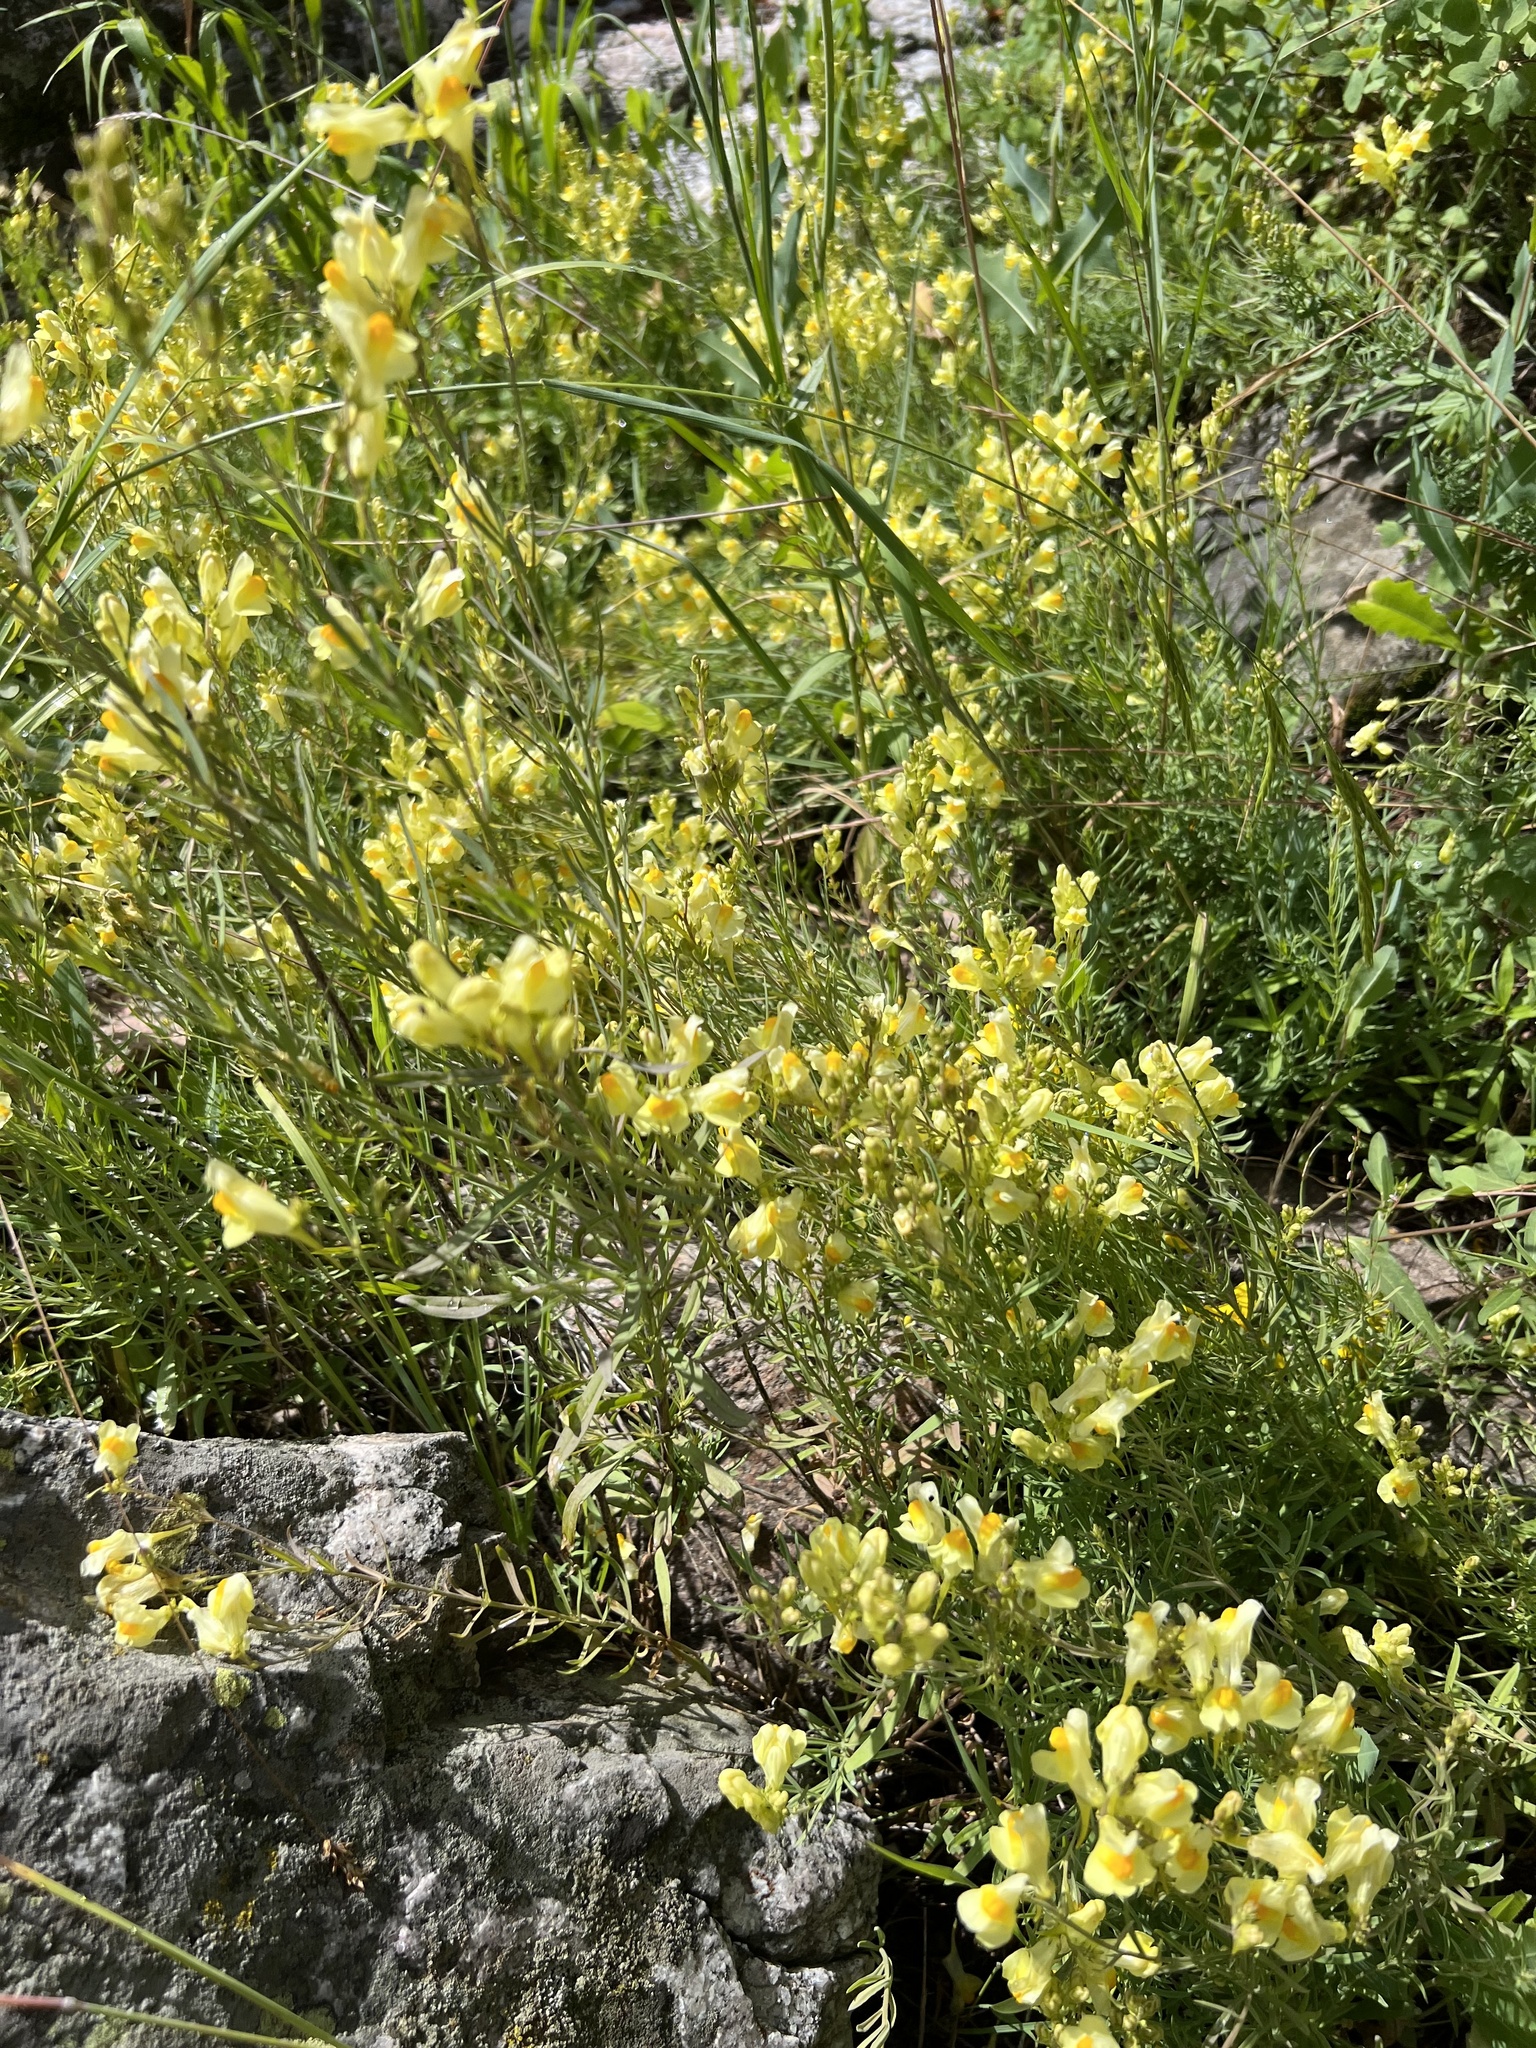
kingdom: Plantae
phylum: Tracheophyta
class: Magnoliopsida
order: Lamiales
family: Plantaginaceae
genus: Linaria
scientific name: Linaria vulgaris
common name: Butter and eggs
